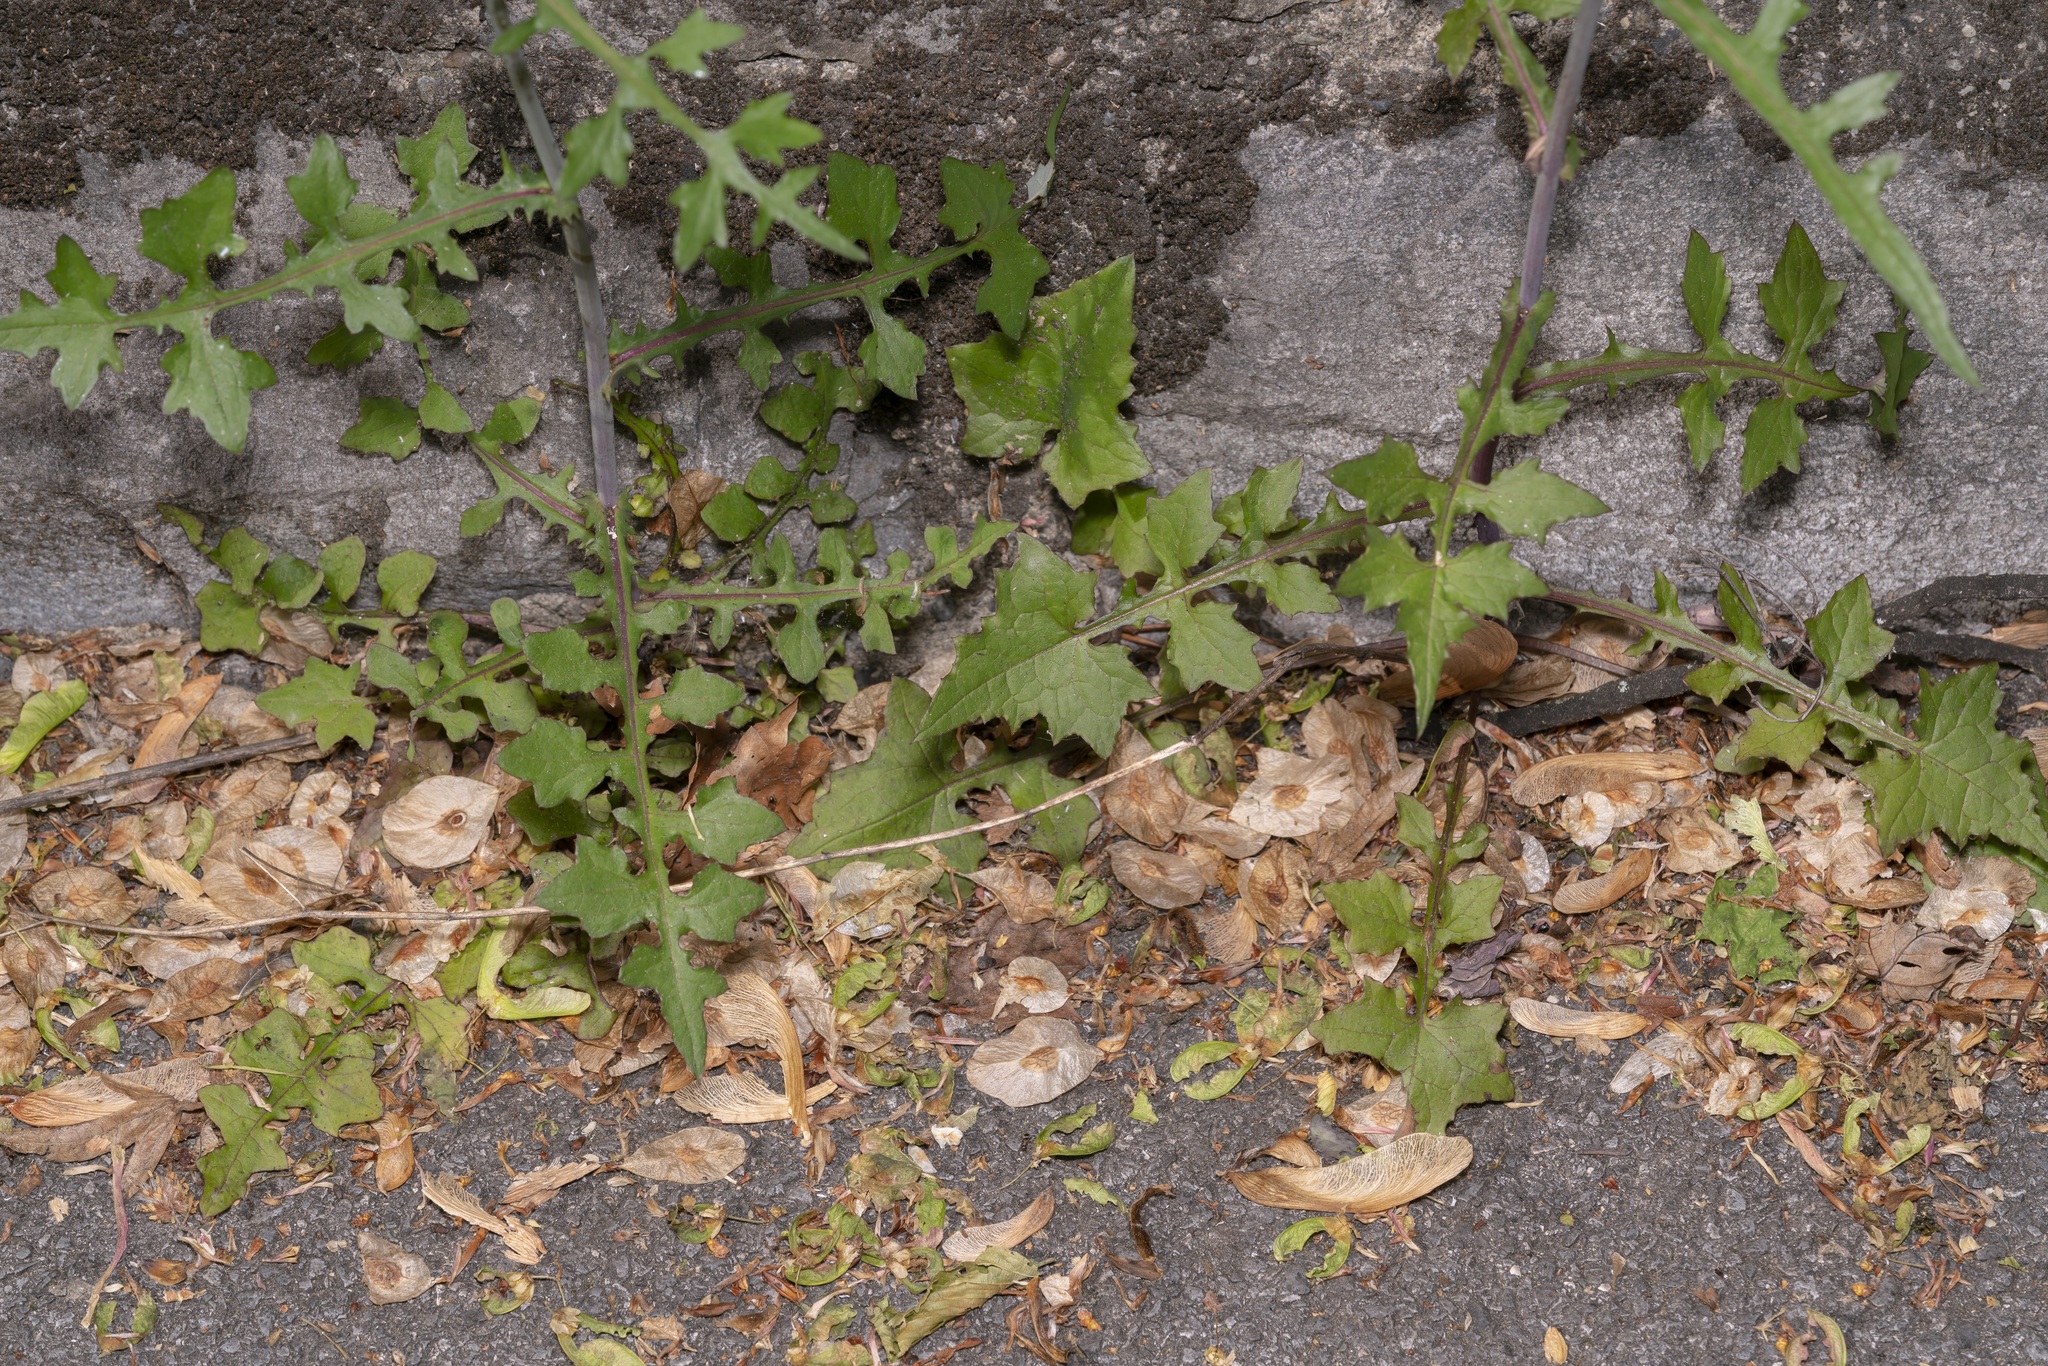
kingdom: Plantae
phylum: Tracheophyta
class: Magnoliopsida
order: Asterales
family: Asteraceae
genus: Mycelis
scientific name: Mycelis muralis
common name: Wall lettuce
